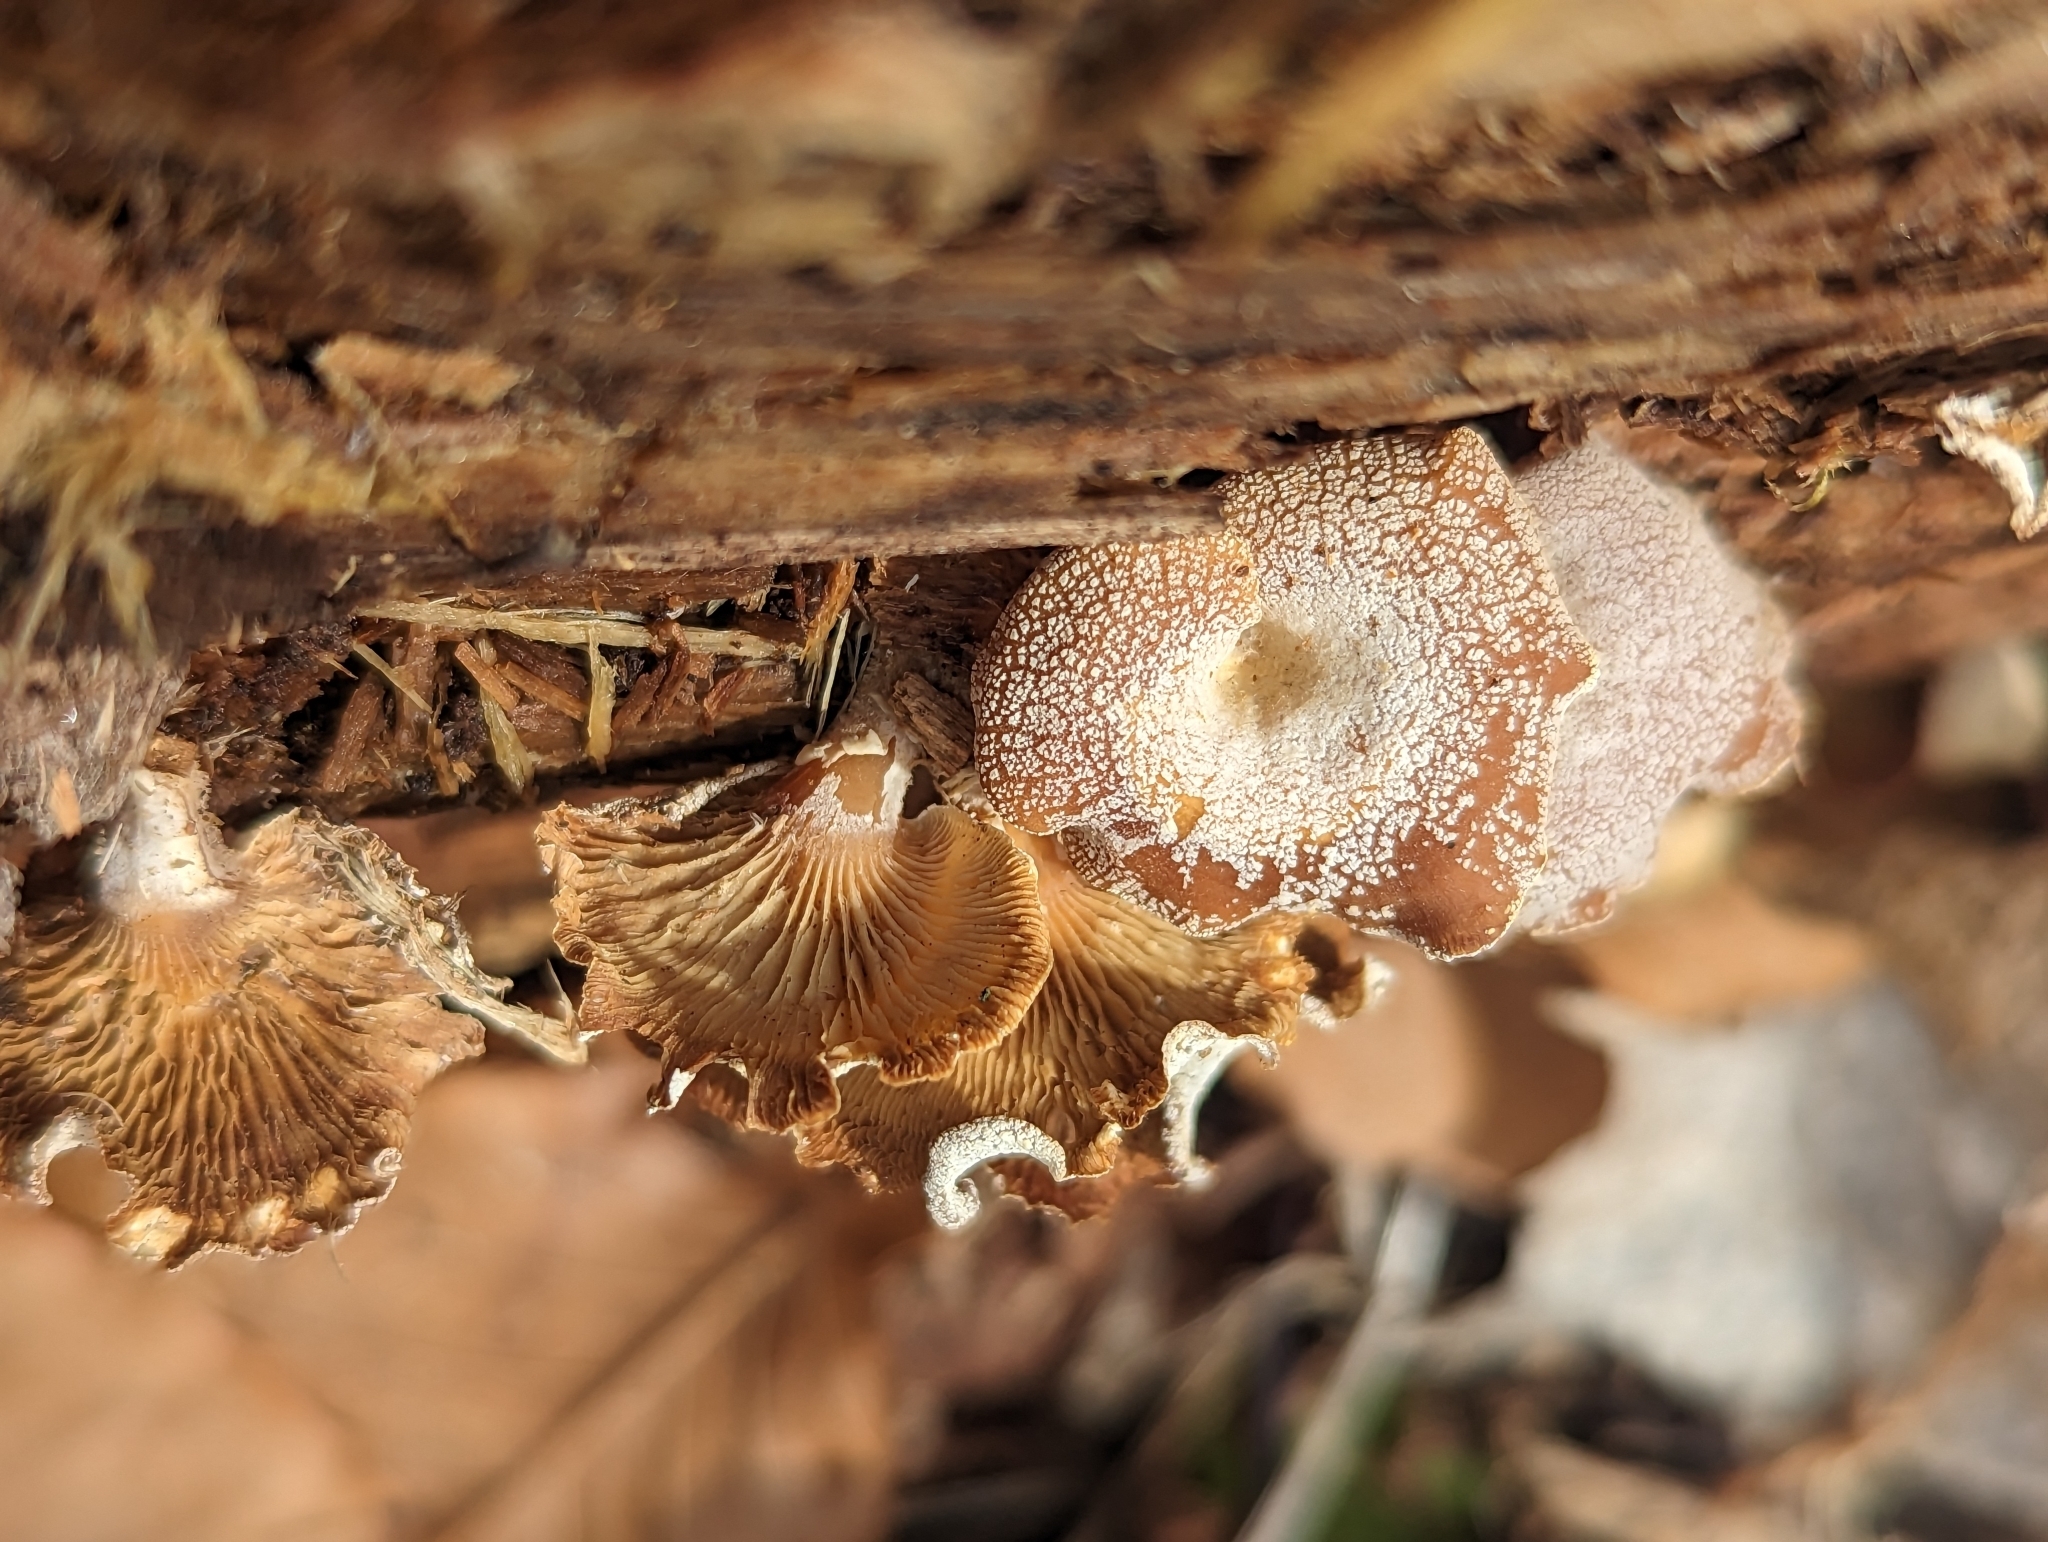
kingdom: Fungi
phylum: Basidiomycota
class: Agaricomycetes
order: Agaricales
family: Mycenaceae
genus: Panellus
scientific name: Panellus stipticus
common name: Bitter oysterling
